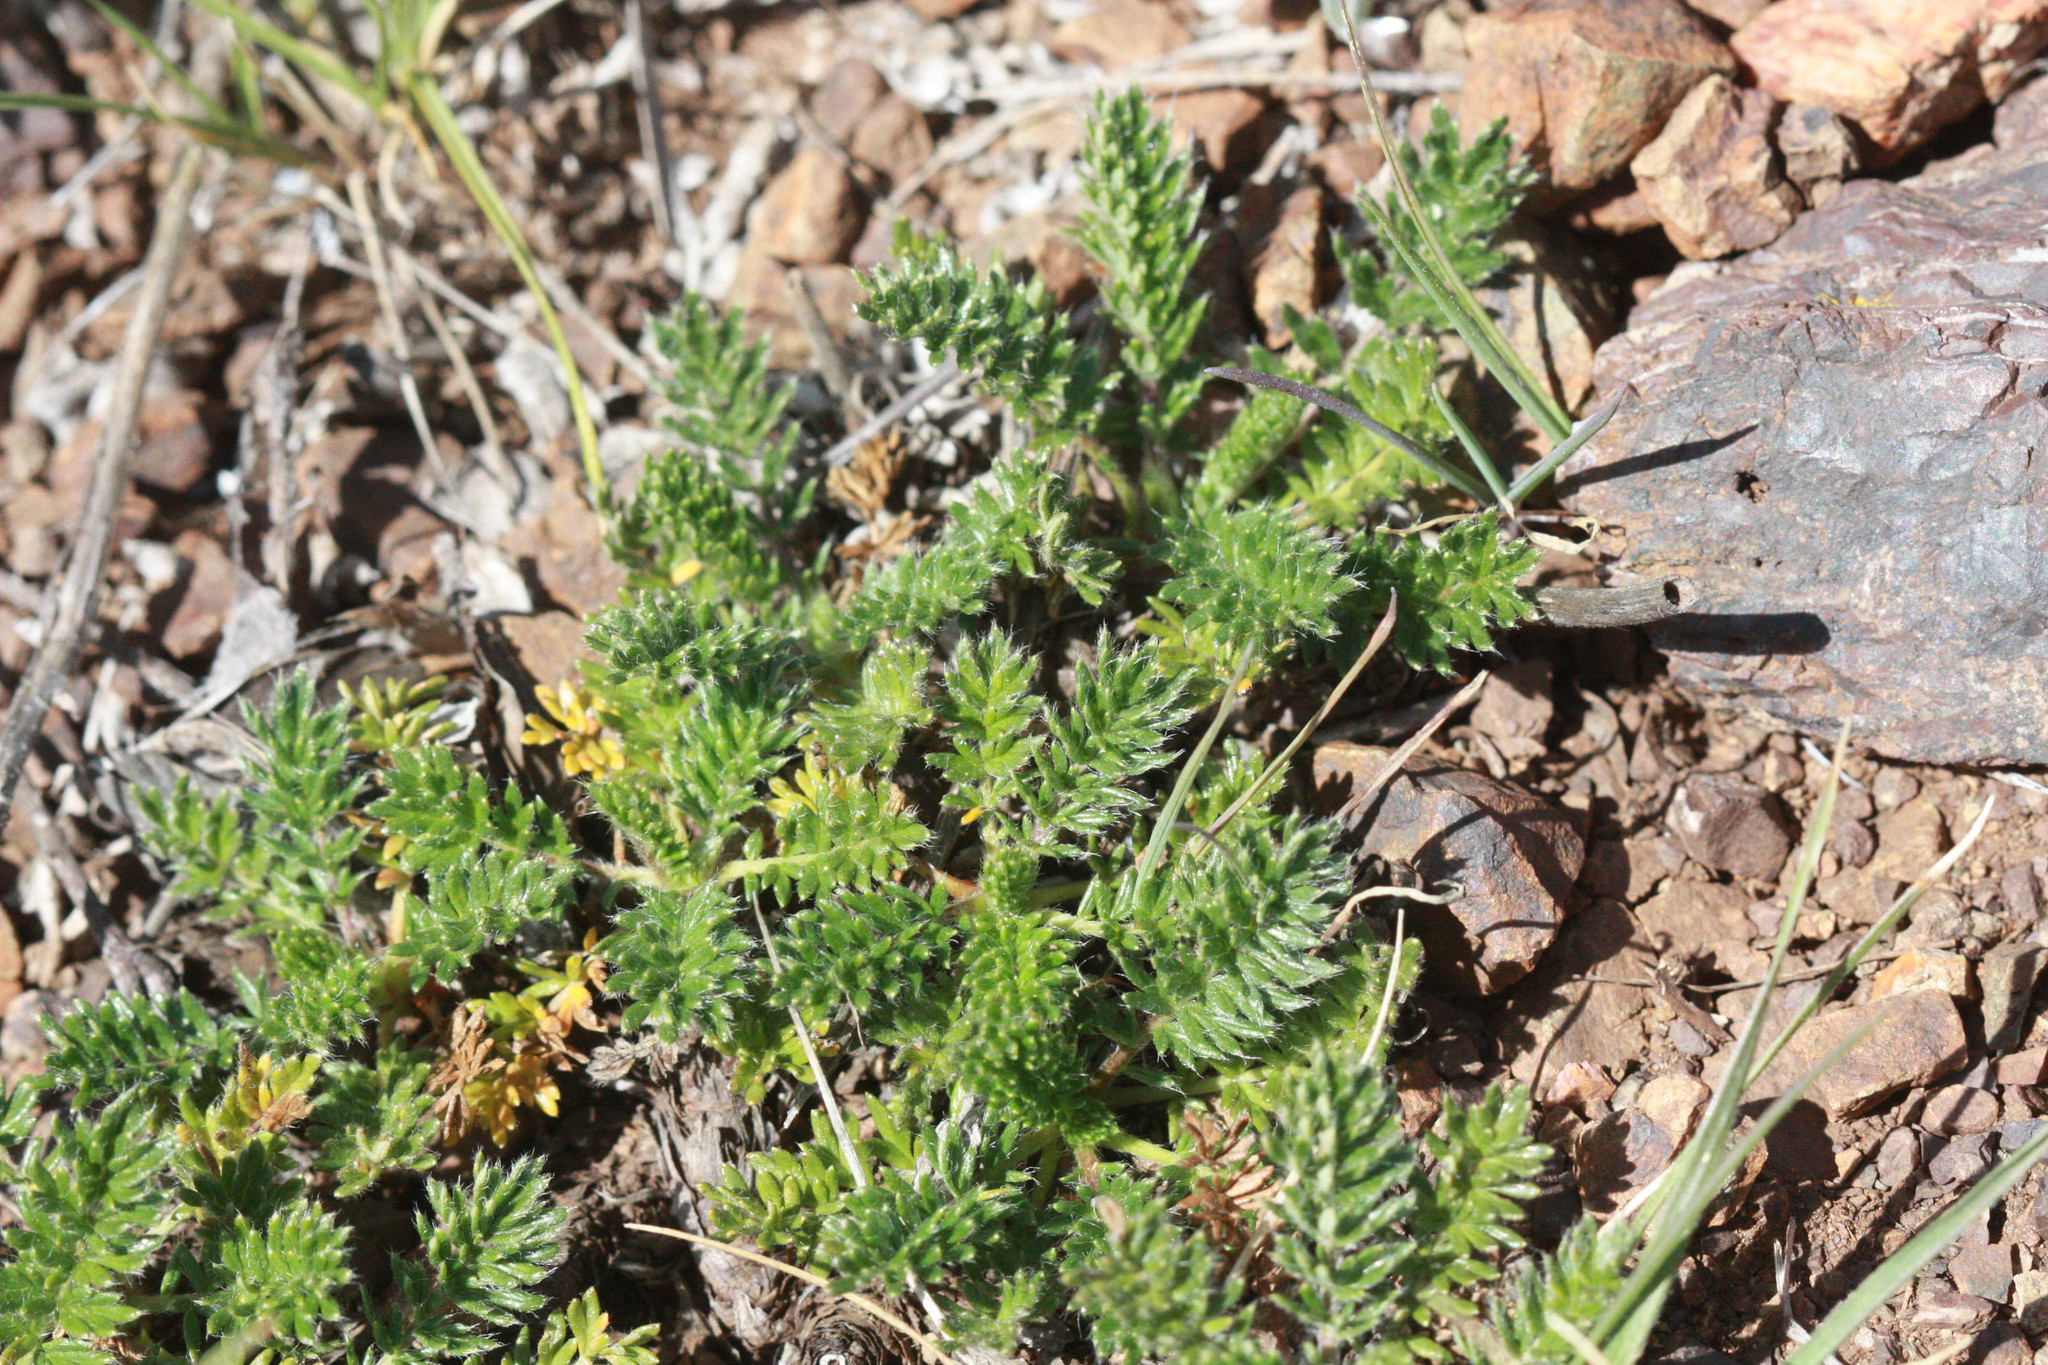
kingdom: Plantae
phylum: Tracheophyta
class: Magnoliopsida
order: Rosales
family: Rosaceae
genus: Acaena
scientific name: Acaena pinnatifida
